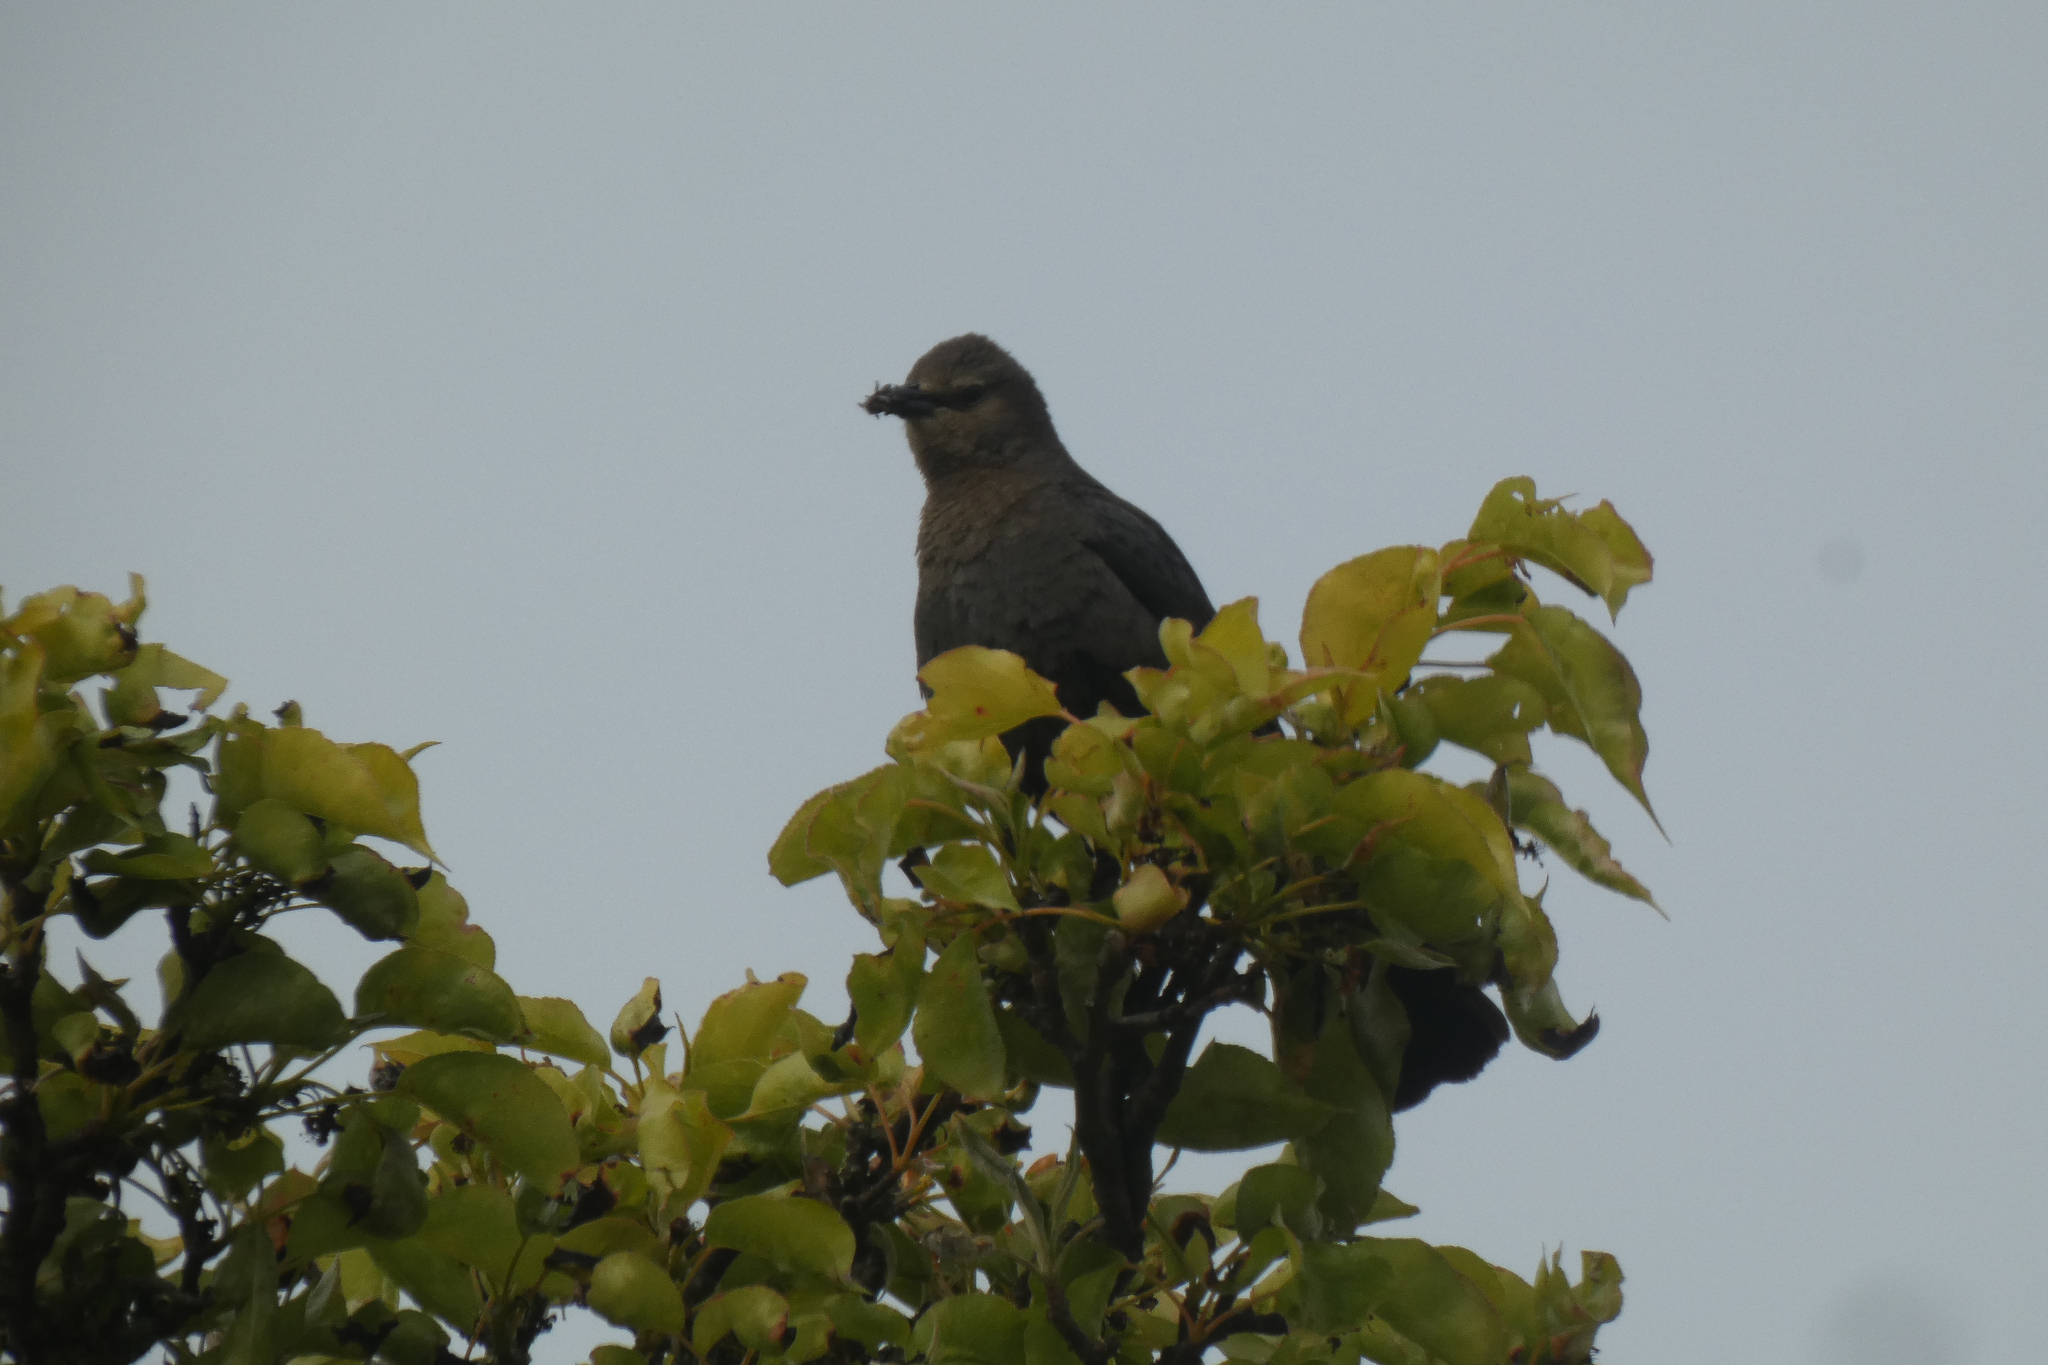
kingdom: Animalia
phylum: Chordata
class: Aves
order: Passeriformes
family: Icteridae
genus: Euphagus
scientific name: Euphagus cyanocephalus
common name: Brewer's blackbird
